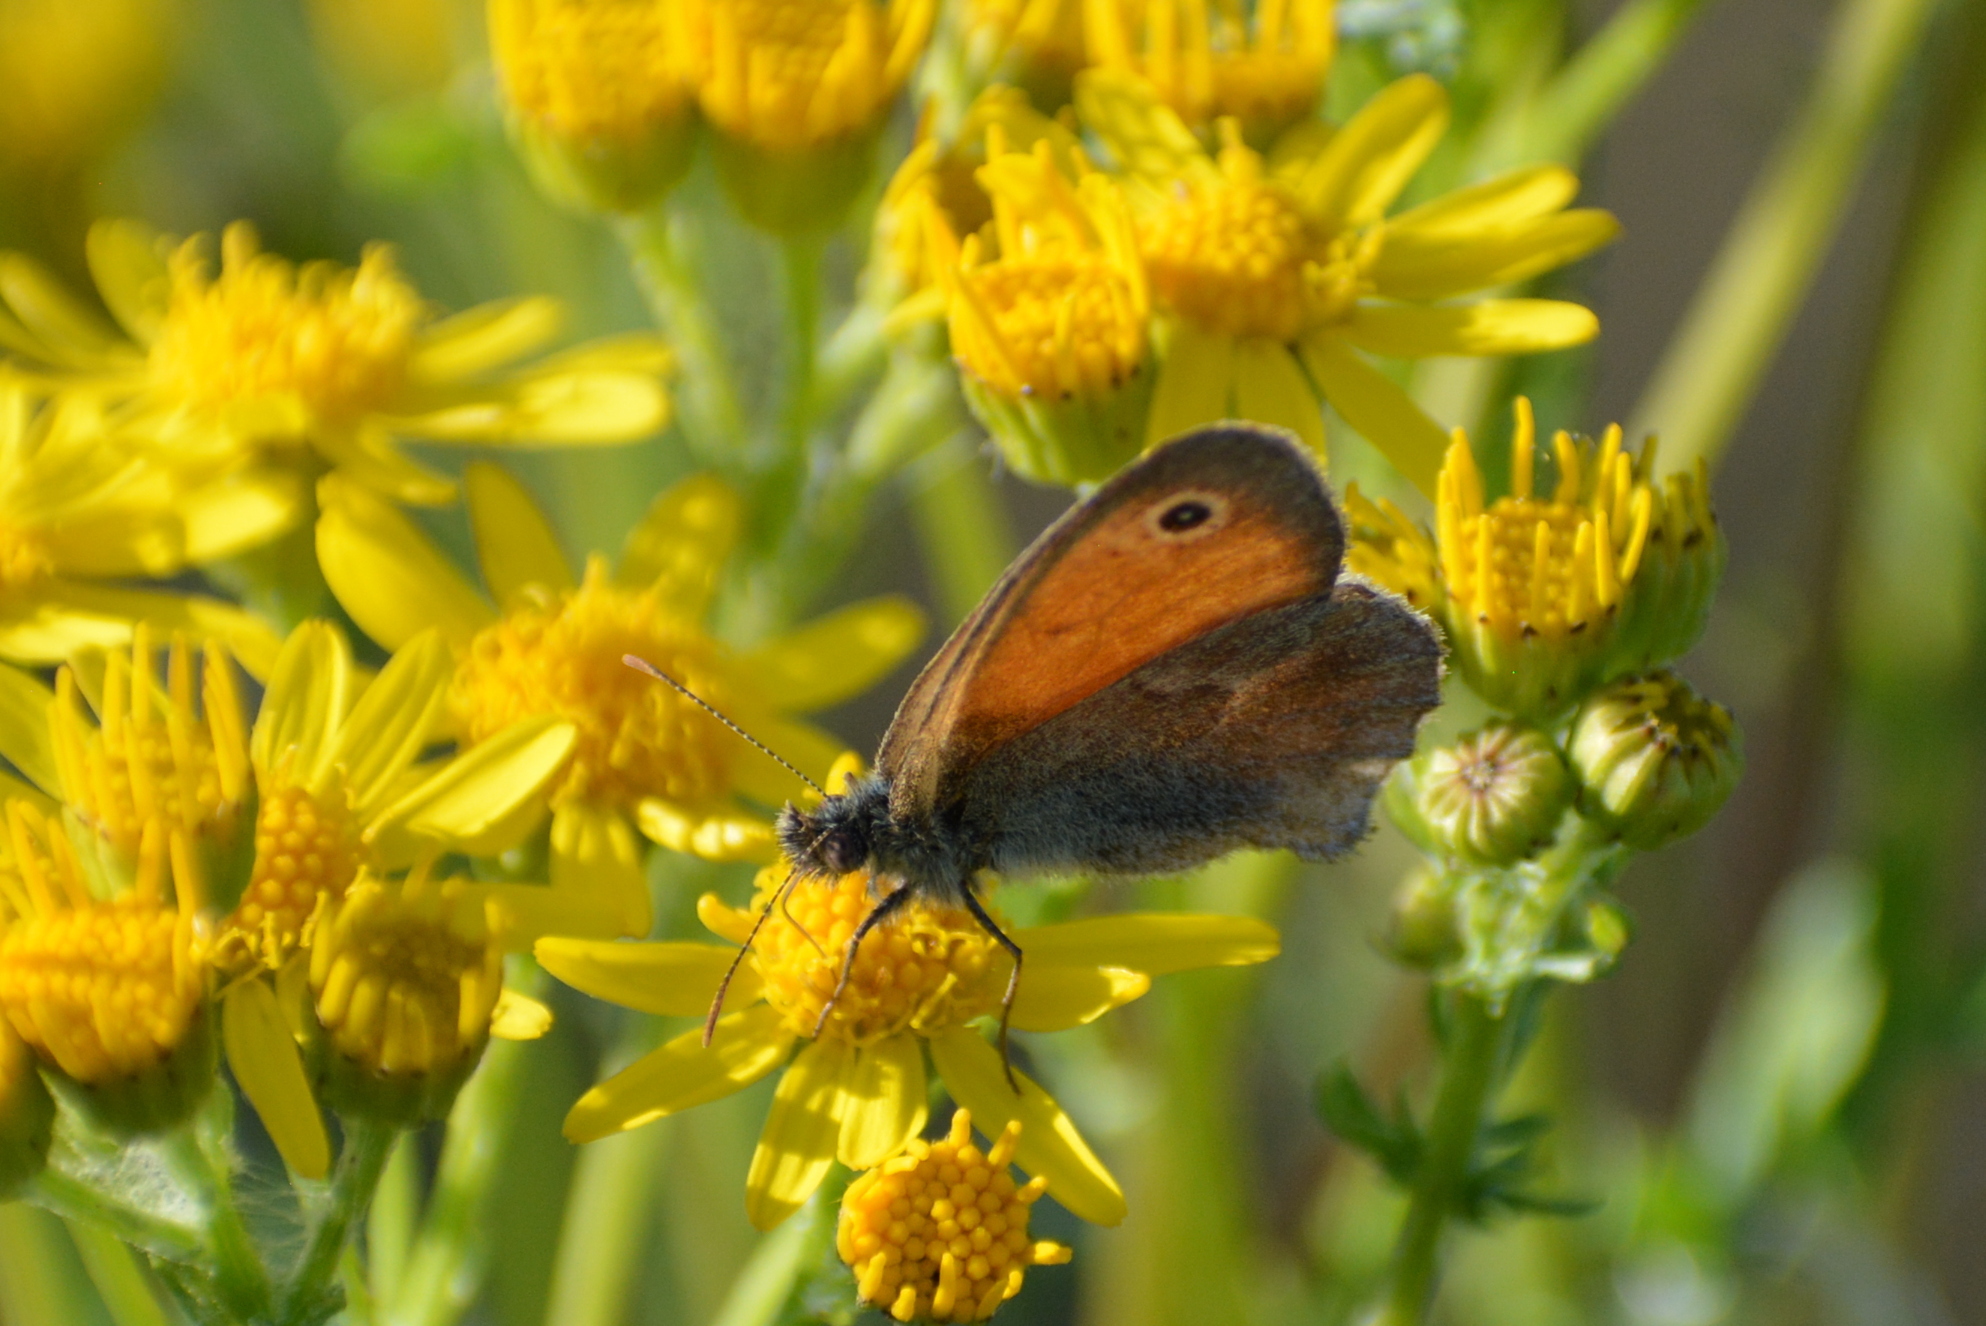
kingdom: Animalia
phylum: Arthropoda
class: Insecta
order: Lepidoptera
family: Nymphalidae
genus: Coenonympha
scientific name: Coenonympha pamphilus
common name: Small heath
